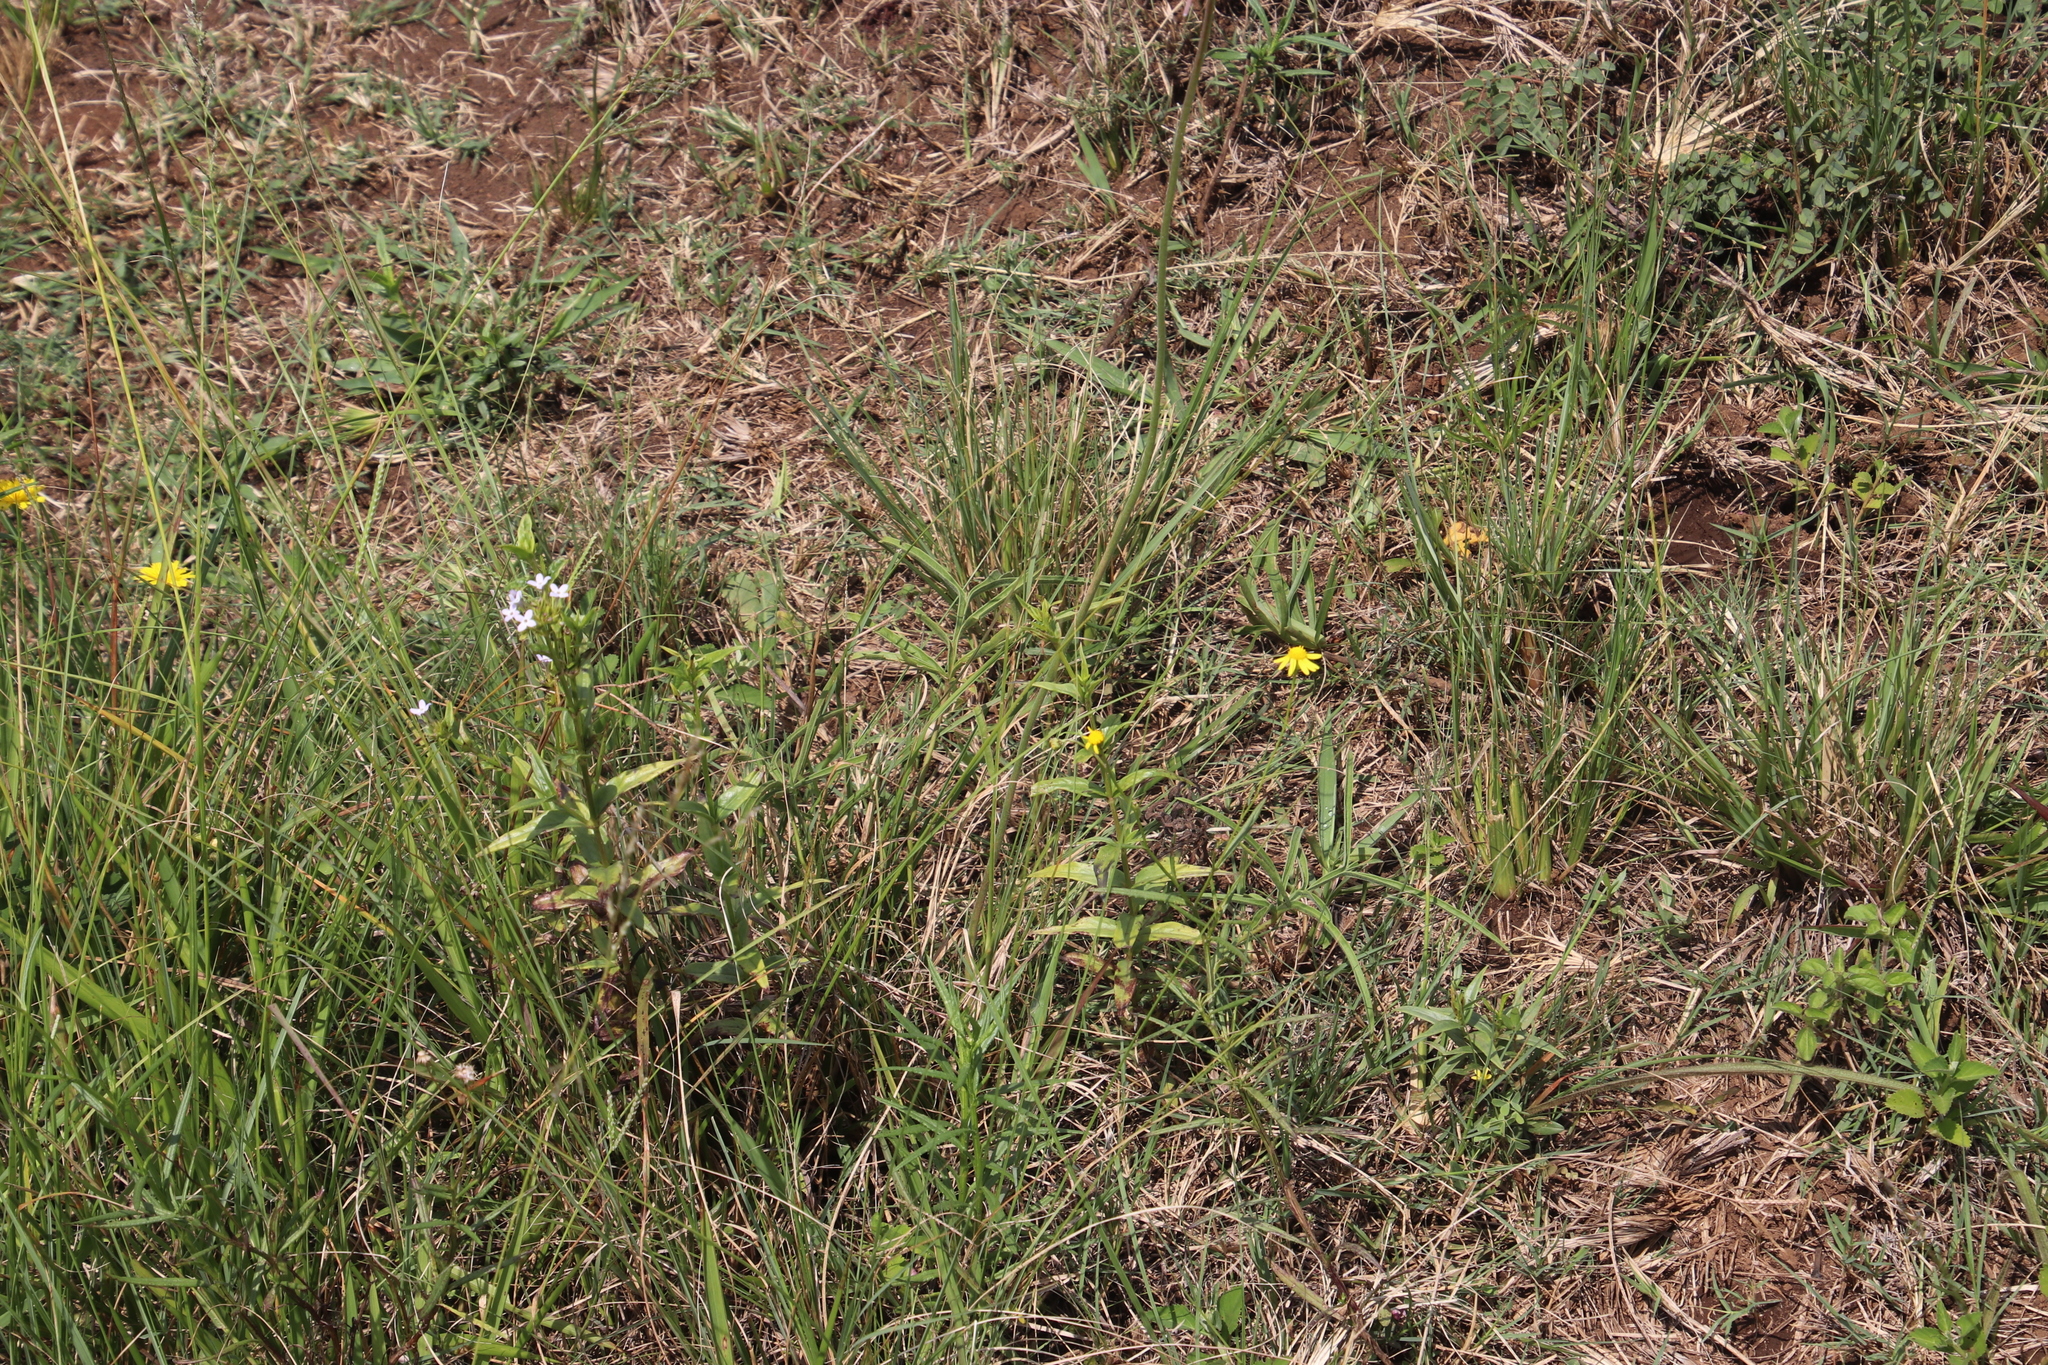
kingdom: Plantae
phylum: Tracheophyta
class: Magnoliopsida
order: Geraniales
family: Geraniaceae
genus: Pelargonium
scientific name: Pelargonium luridum
